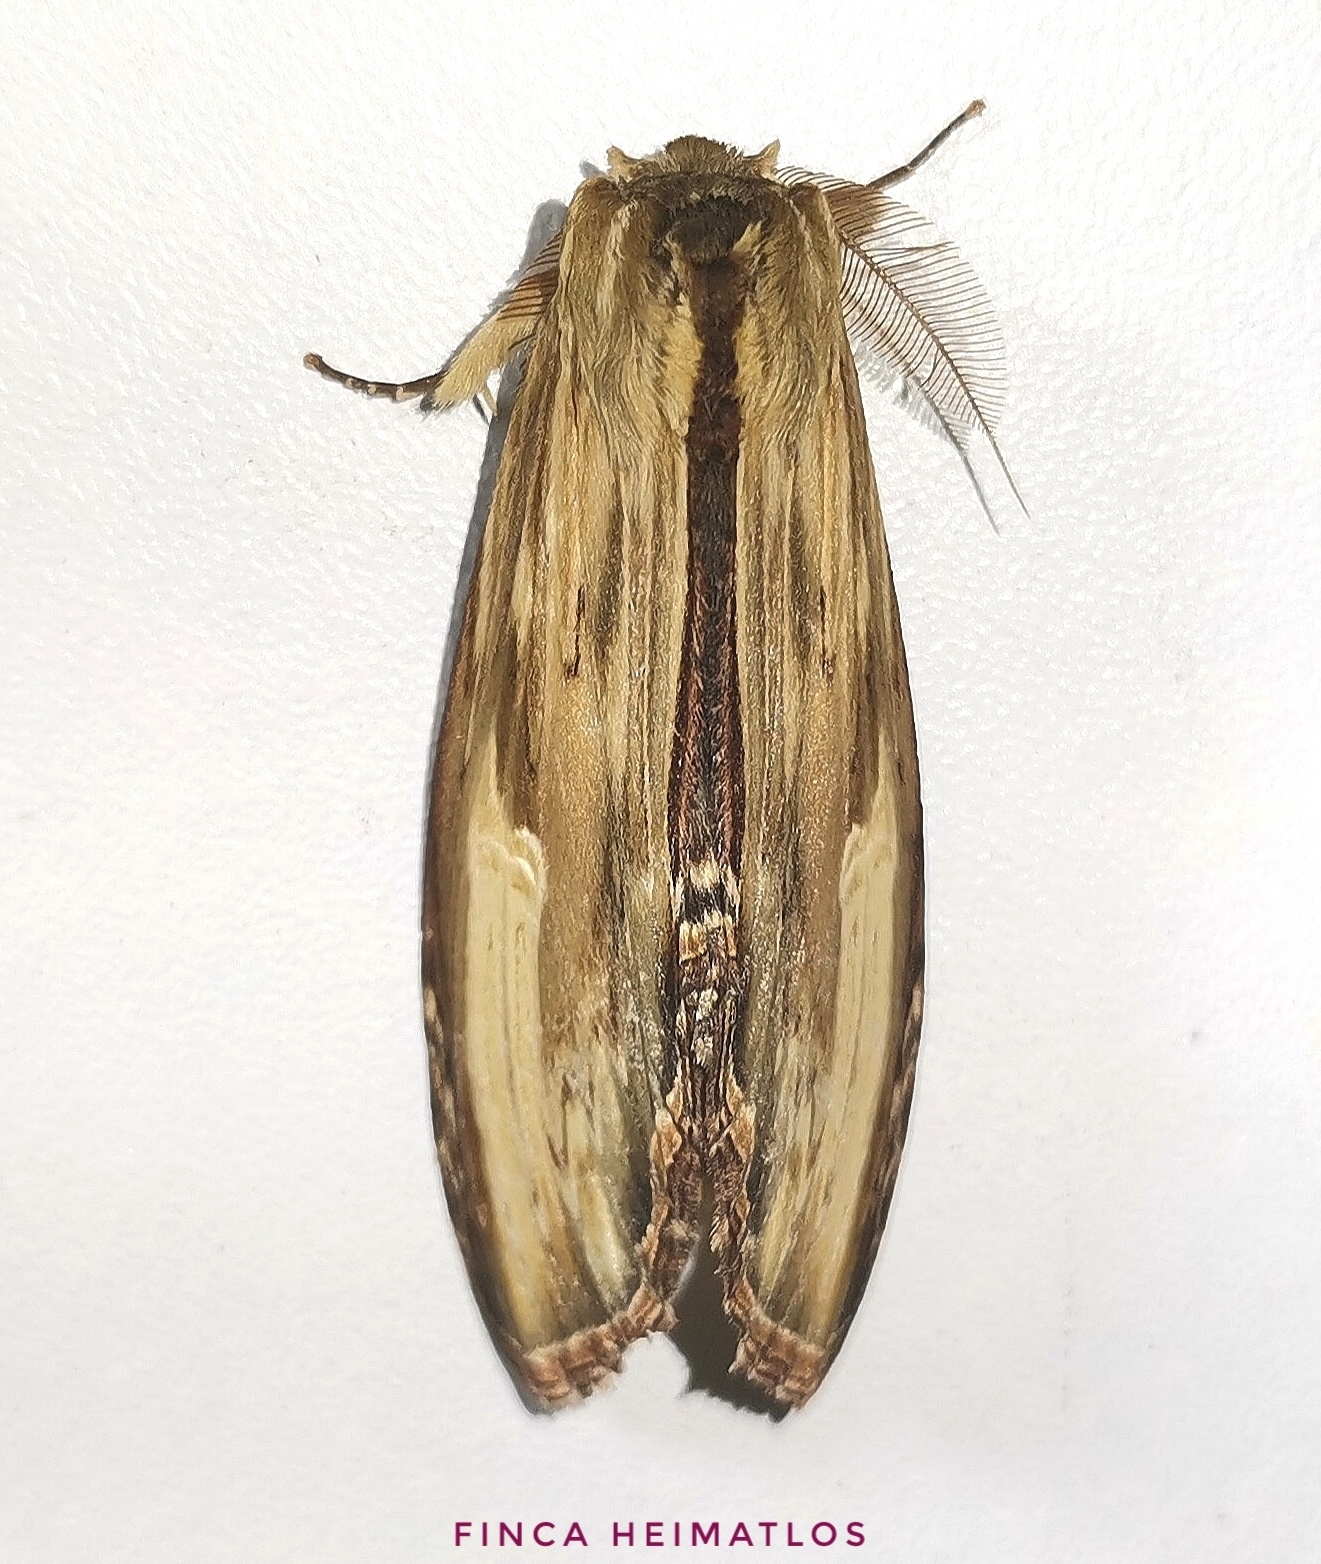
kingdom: Animalia
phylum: Arthropoda
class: Insecta
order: Lepidoptera
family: Notodontidae
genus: Truncaptera
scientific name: Truncaptera
